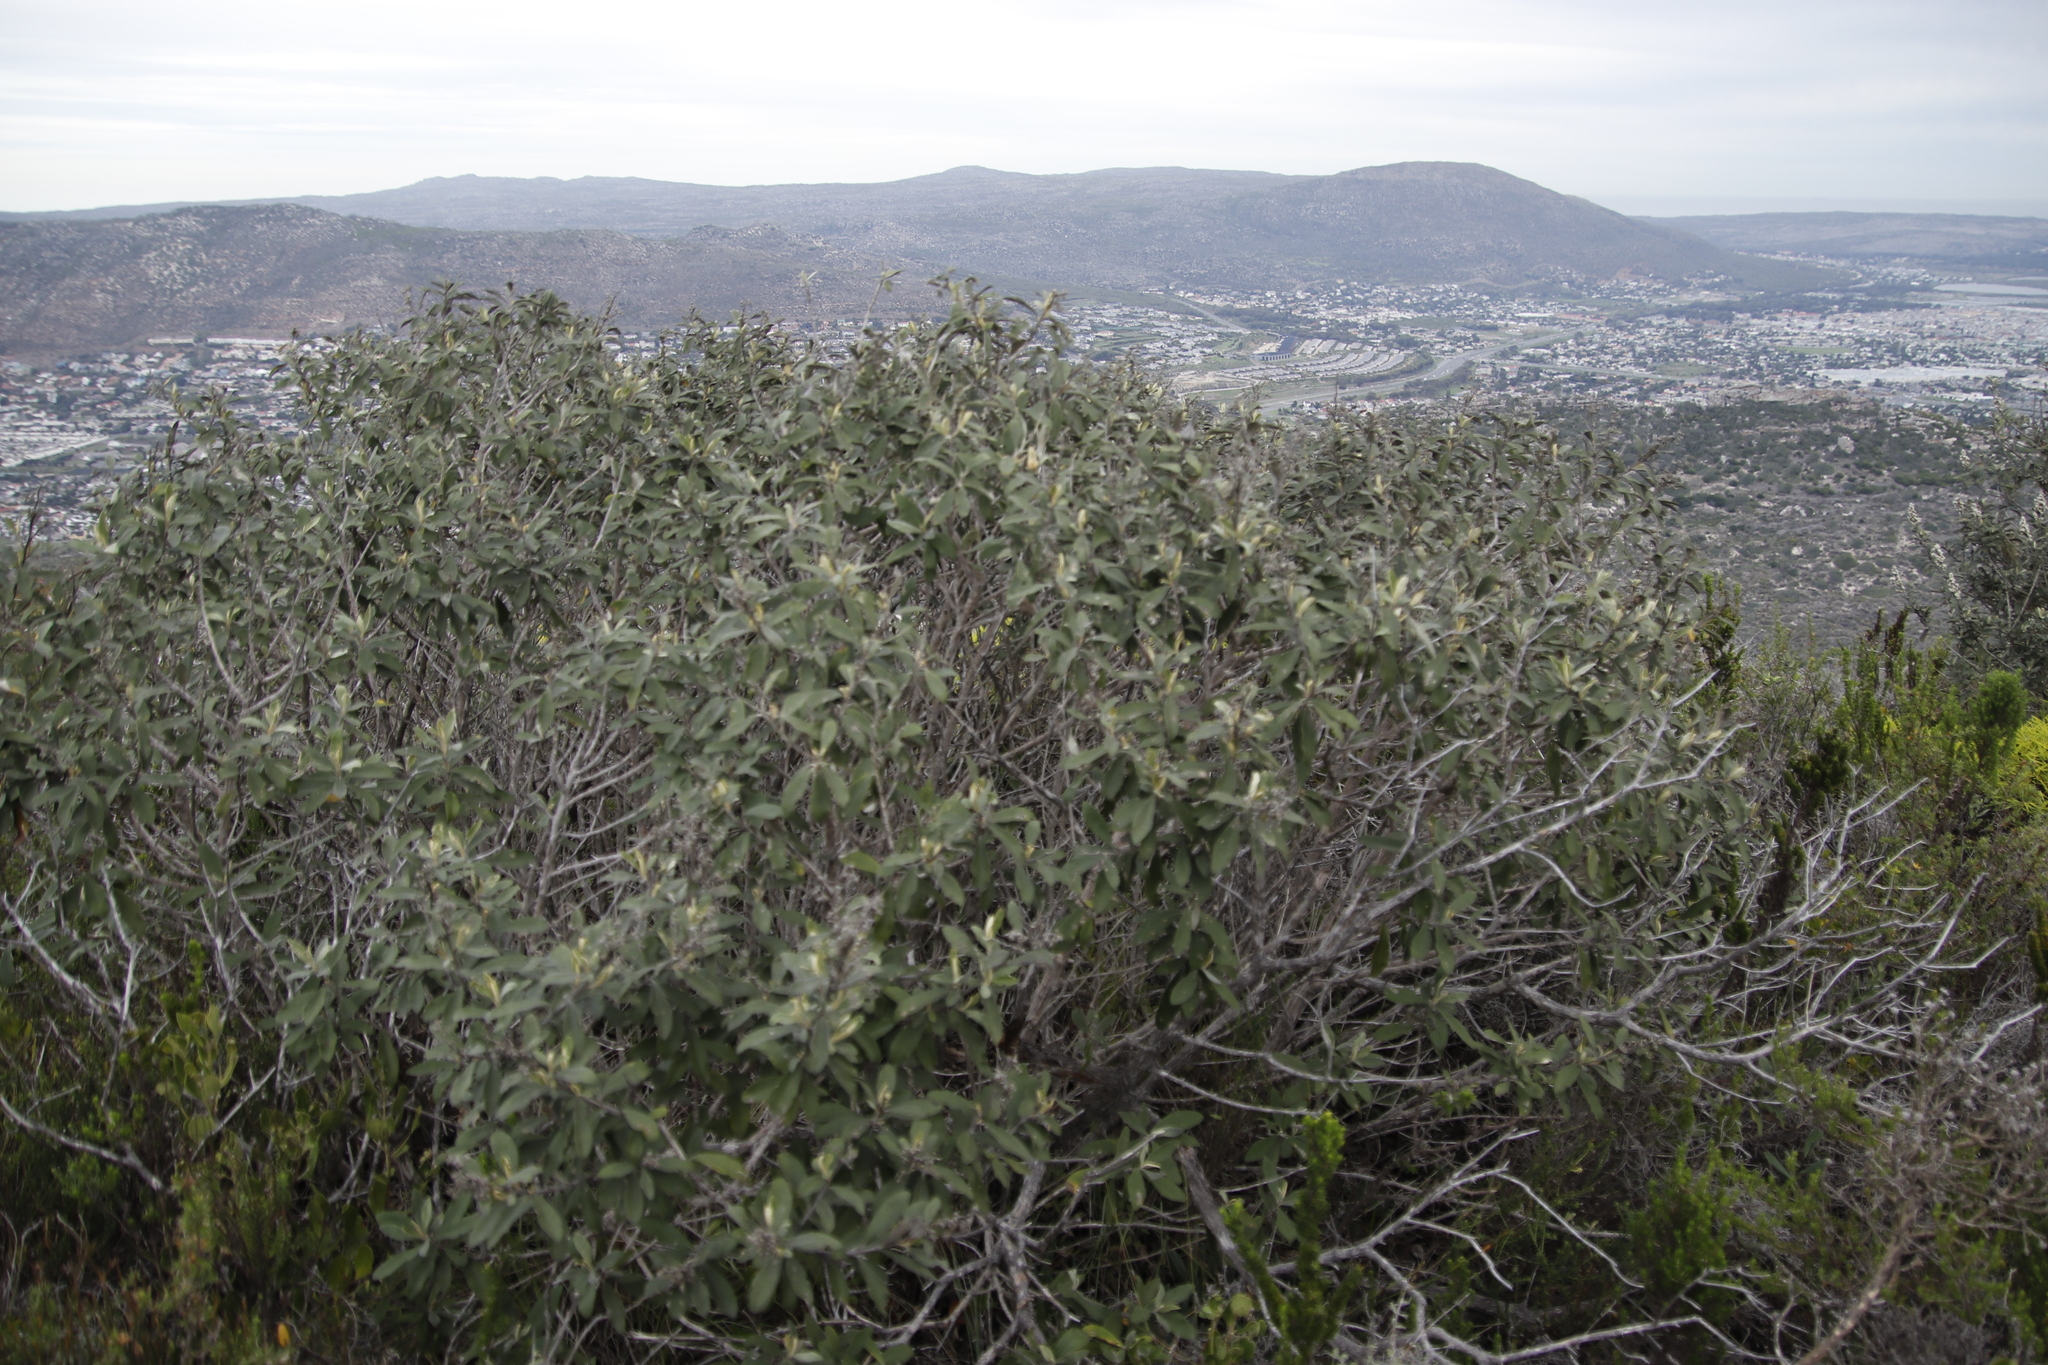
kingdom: Plantae
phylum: Tracheophyta
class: Magnoliopsida
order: Asterales
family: Asteraceae
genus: Tarchonanthus
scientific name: Tarchonanthus littoralis
